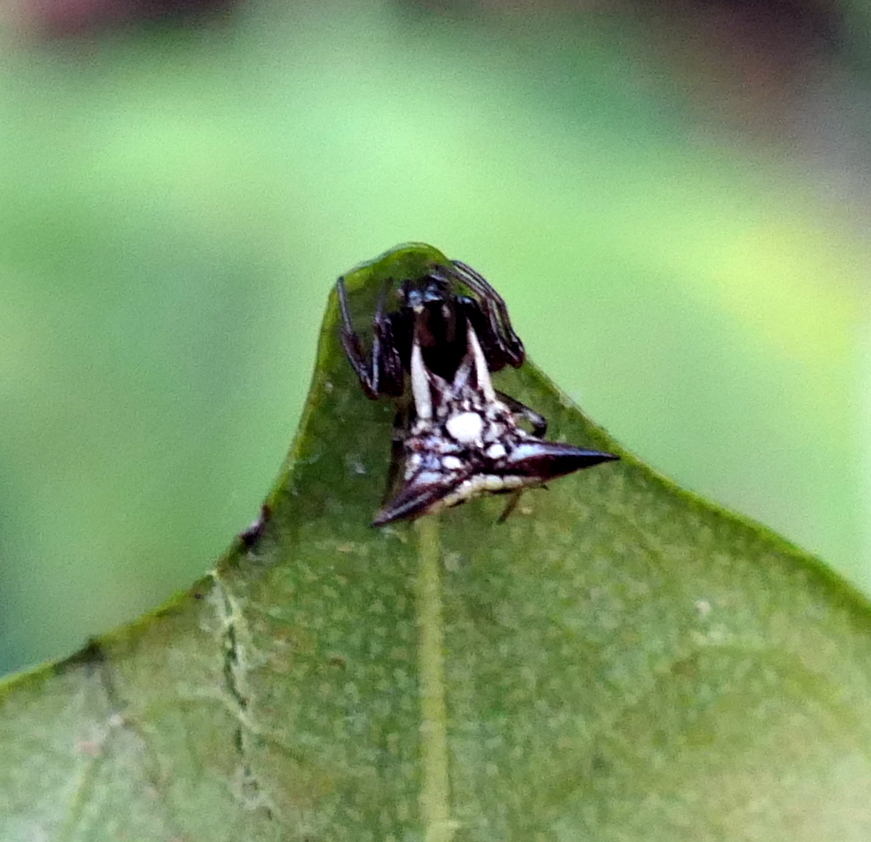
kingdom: Animalia
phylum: Arthropoda
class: Arachnida
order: Araneae
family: Araneidae
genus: Micrathena
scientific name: Micrathena evansi
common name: Orb weavers
